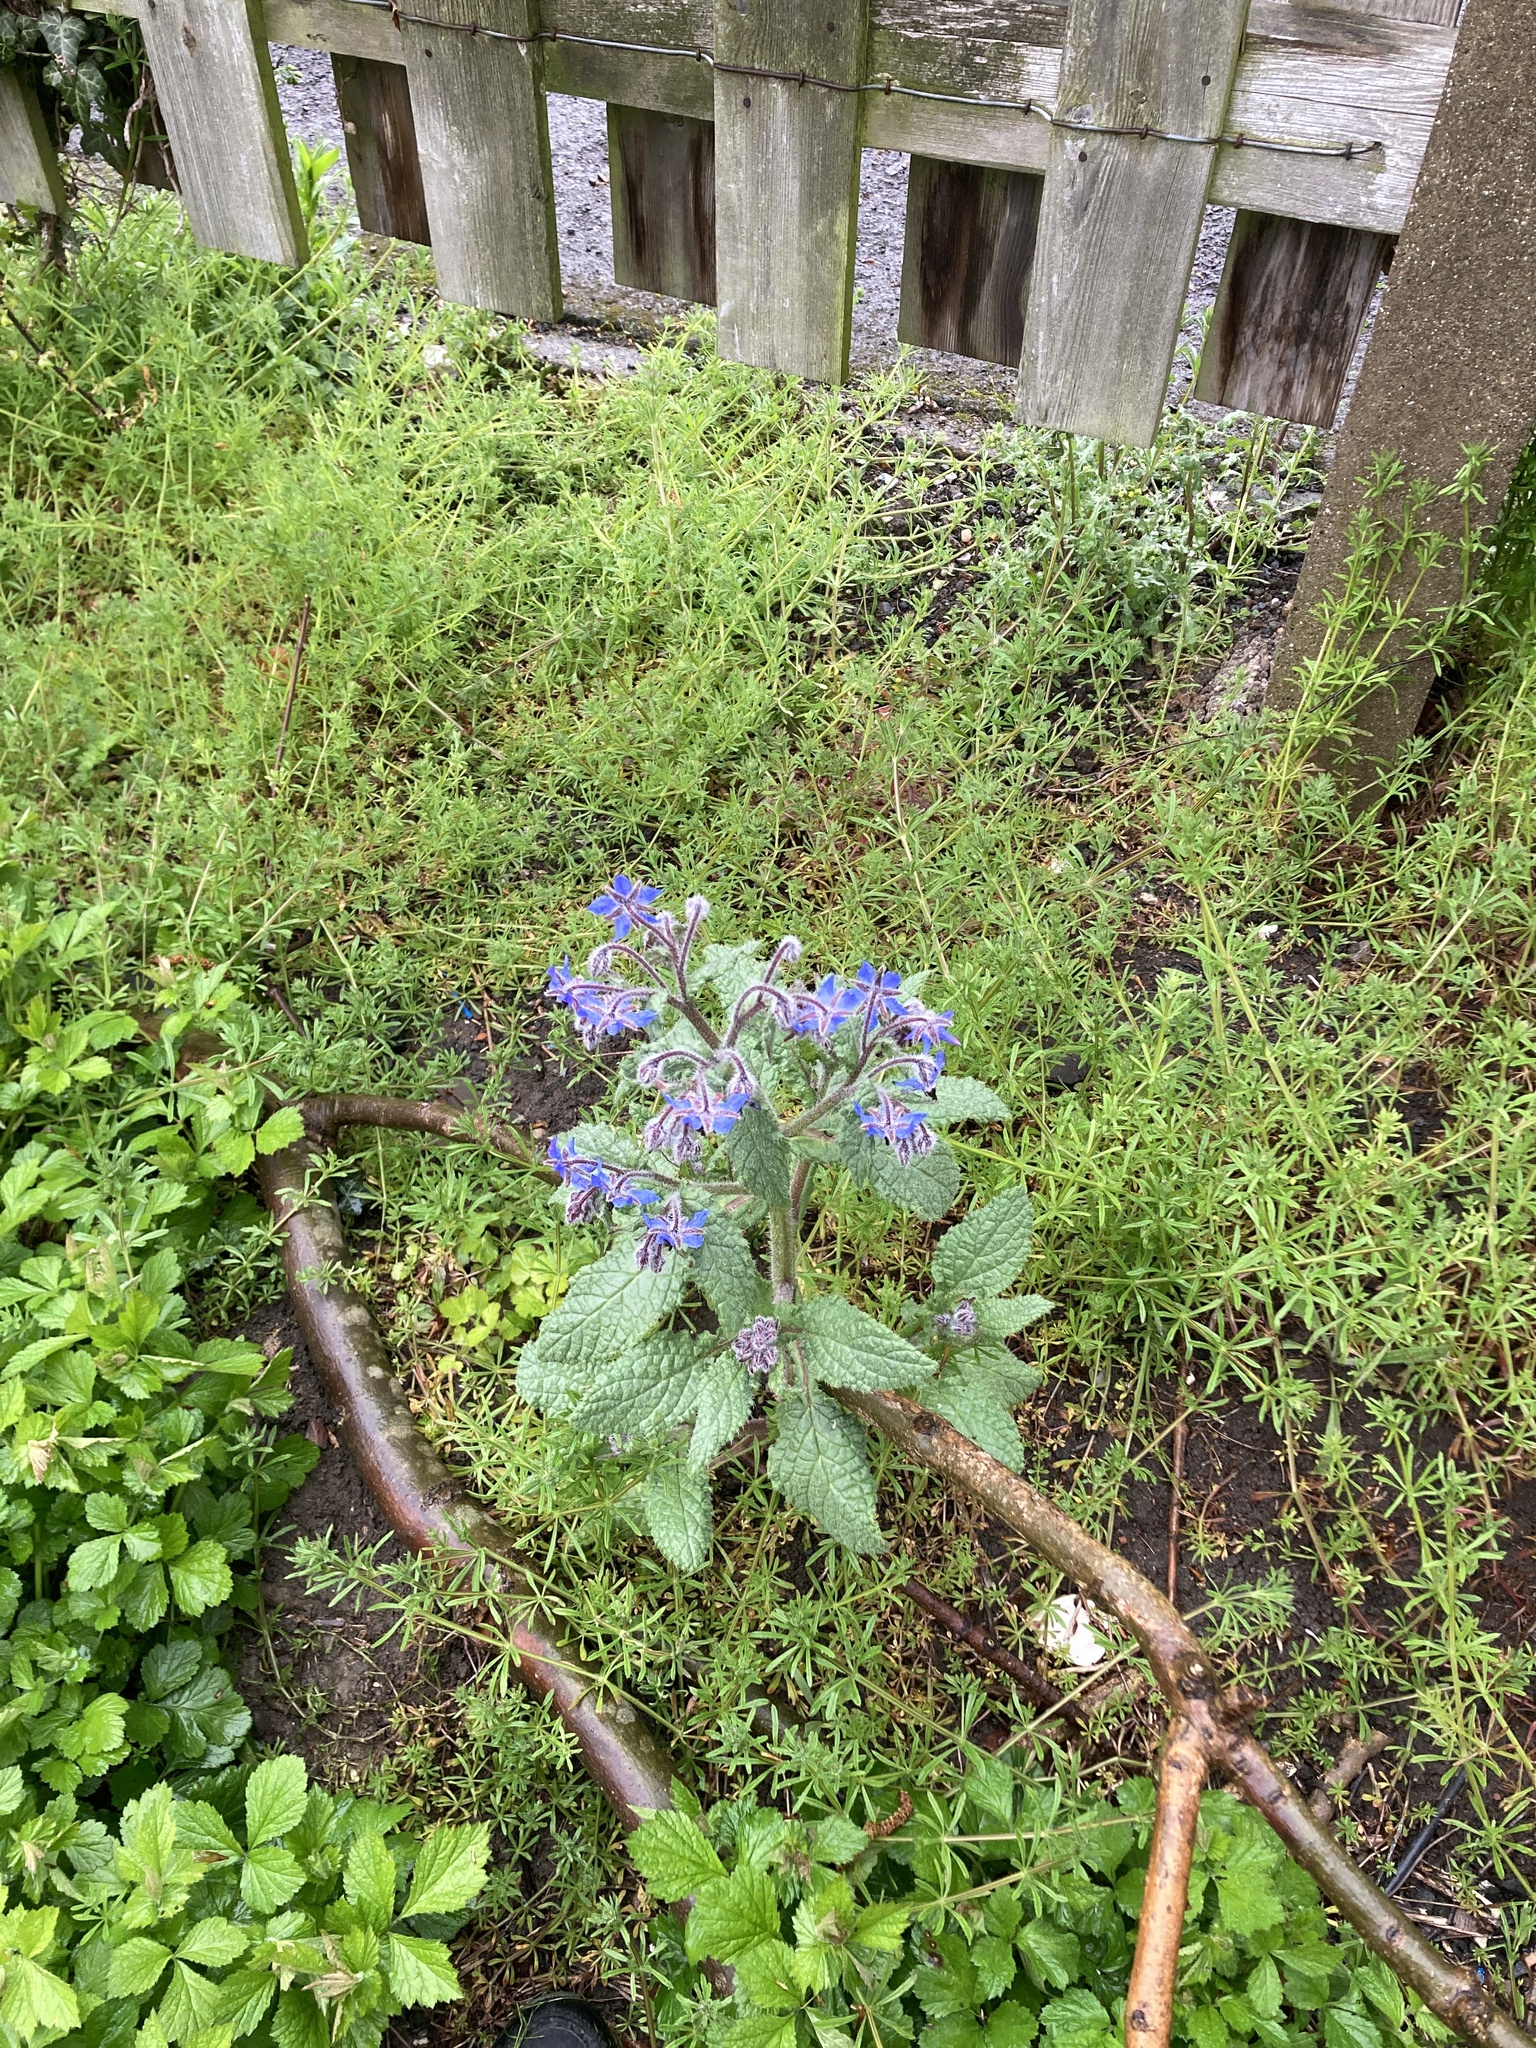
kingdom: Plantae
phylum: Tracheophyta
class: Magnoliopsida
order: Boraginales
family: Boraginaceae
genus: Borago
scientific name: Borago officinalis
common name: Borage
